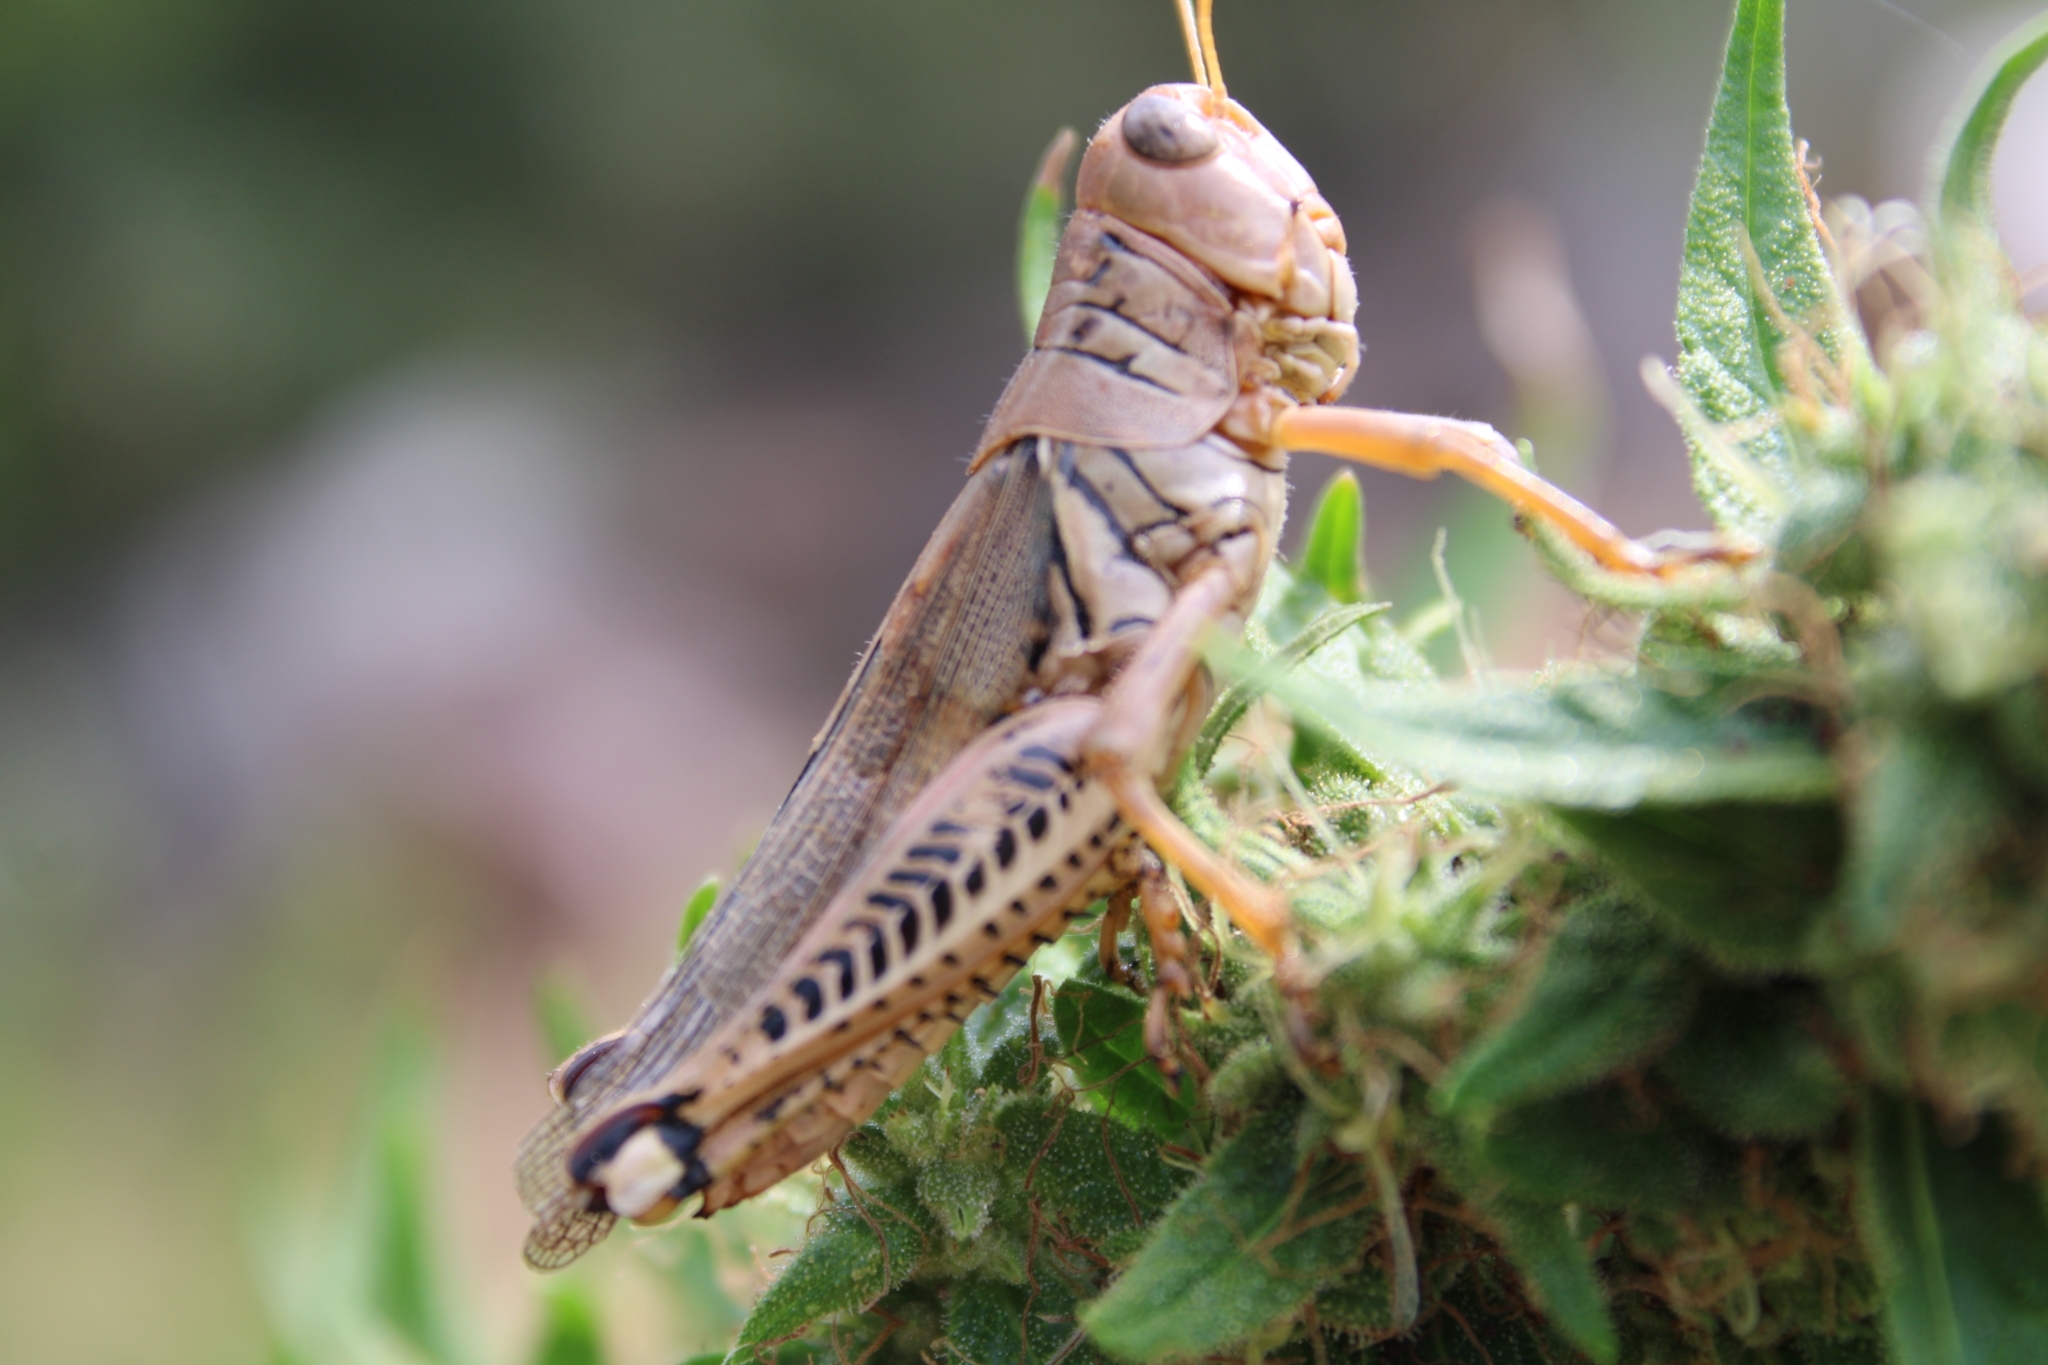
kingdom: Animalia
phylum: Arthropoda
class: Insecta
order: Orthoptera
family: Acrididae
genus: Melanoplus
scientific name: Melanoplus differentialis
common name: Differential grasshopper
